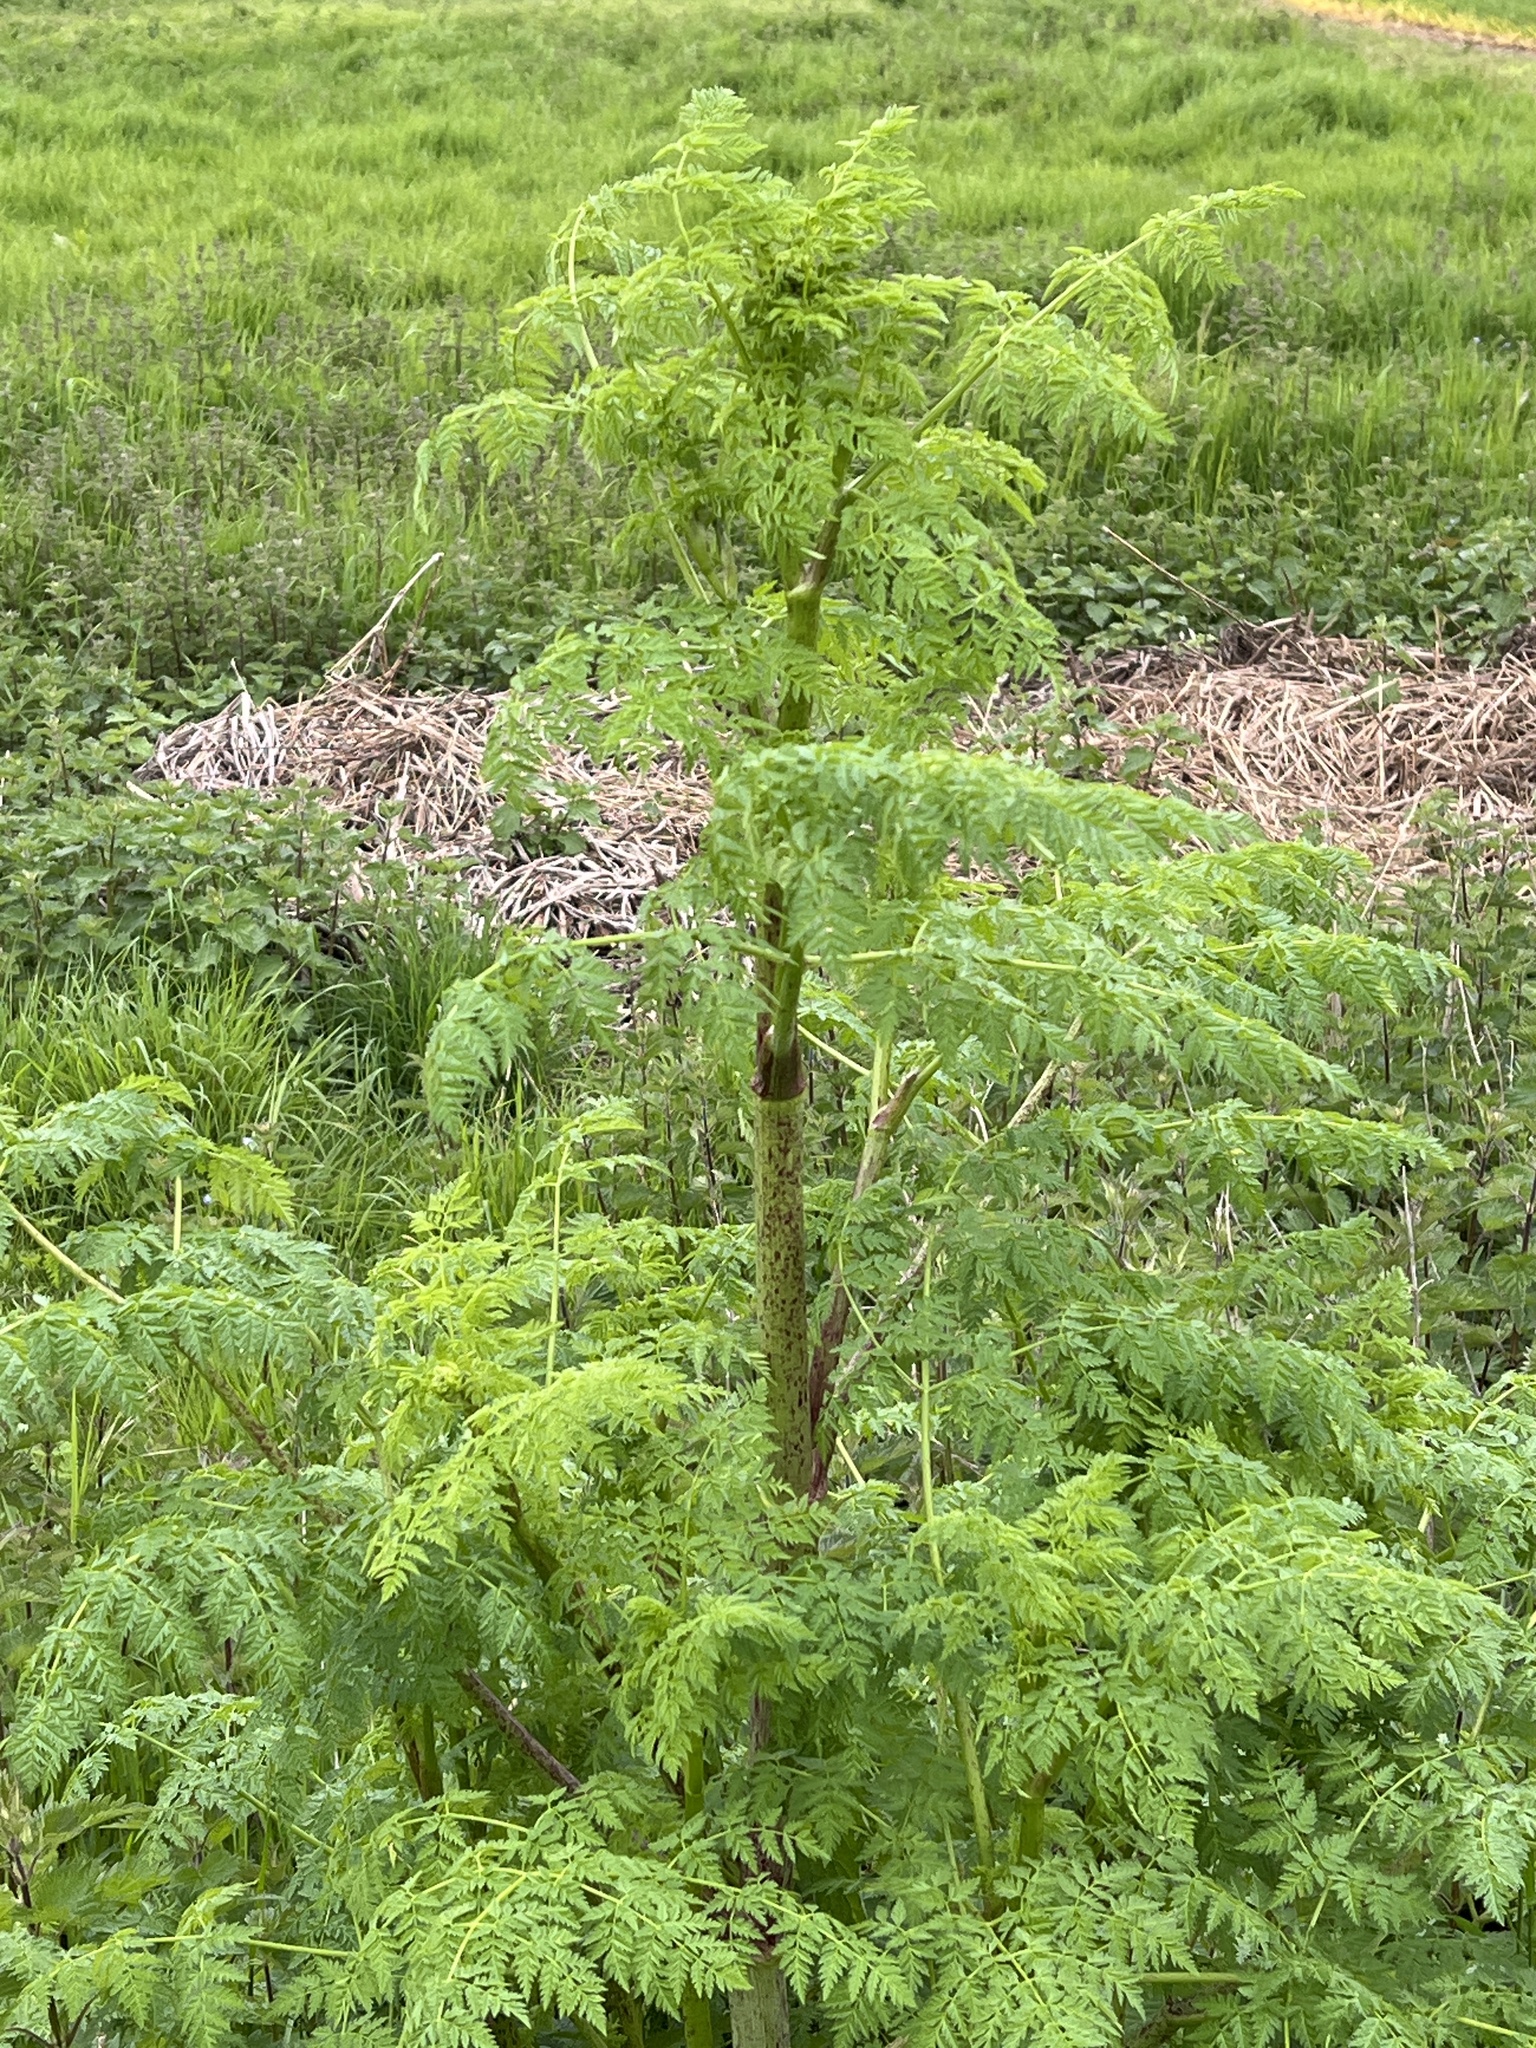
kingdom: Plantae
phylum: Tracheophyta
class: Magnoliopsida
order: Apiales
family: Apiaceae
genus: Conium
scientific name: Conium maculatum
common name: Hemlock
